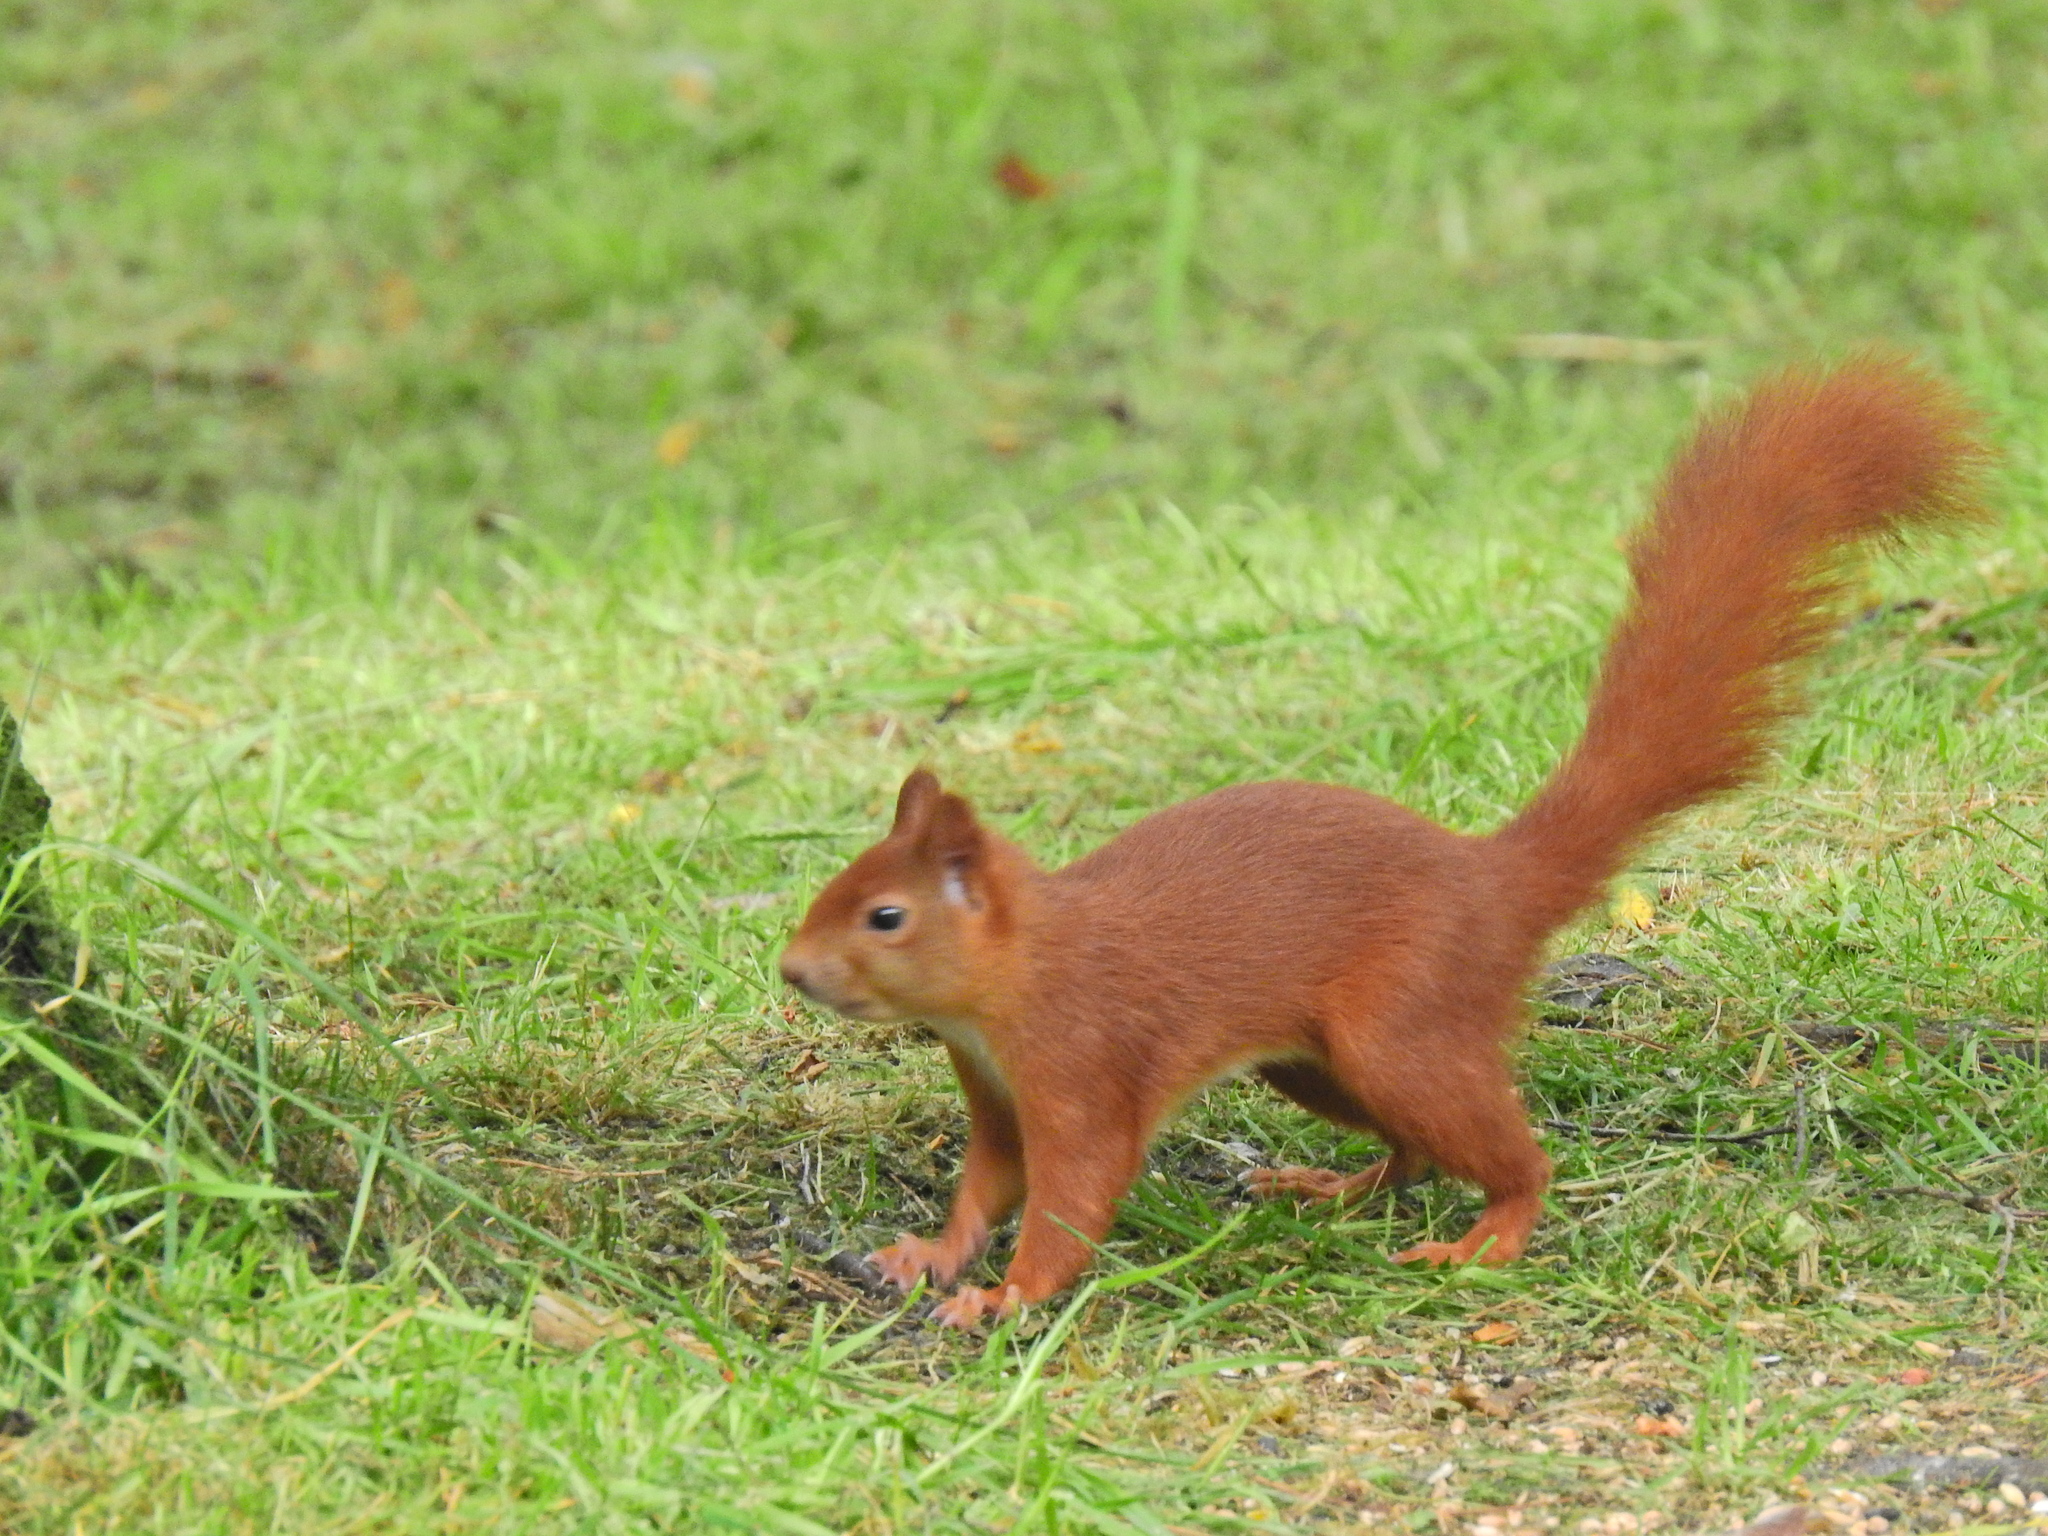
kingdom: Animalia
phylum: Chordata
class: Mammalia
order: Rodentia
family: Sciuridae
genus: Sciurus
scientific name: Sciurus vulgaris
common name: Eurasian red squirrel
